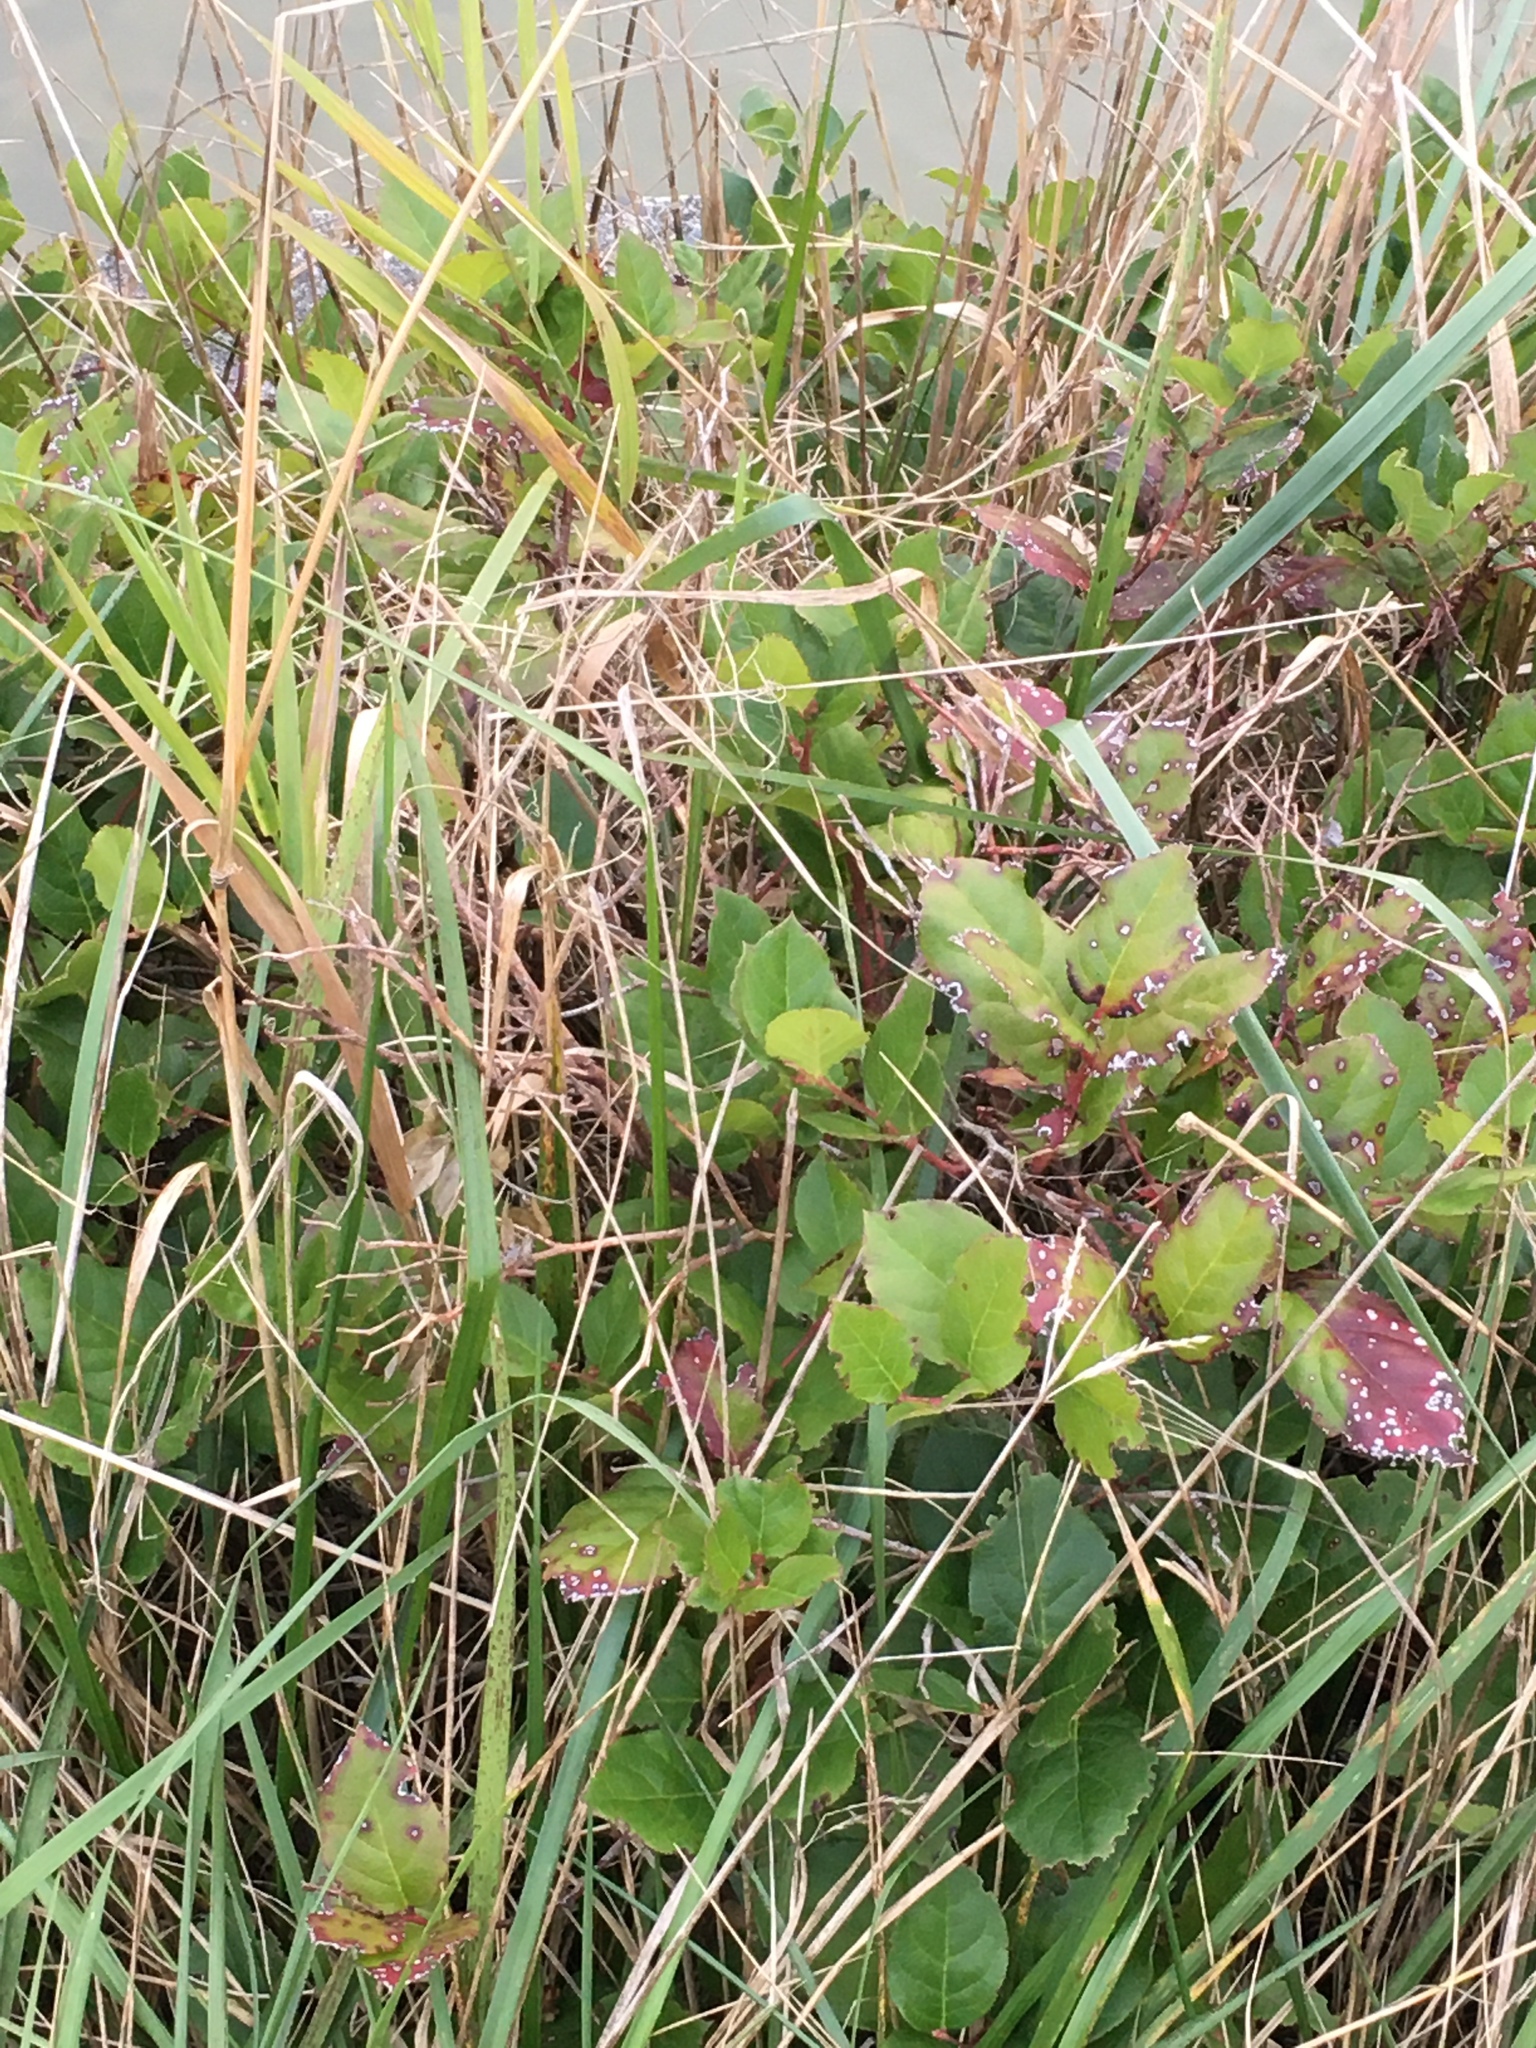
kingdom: Plantae
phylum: Tracheophyta
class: Magnoliopsida
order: Ericales
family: Ericaceae
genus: Gaultheria
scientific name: Gaultheria shallon
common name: Shallon
